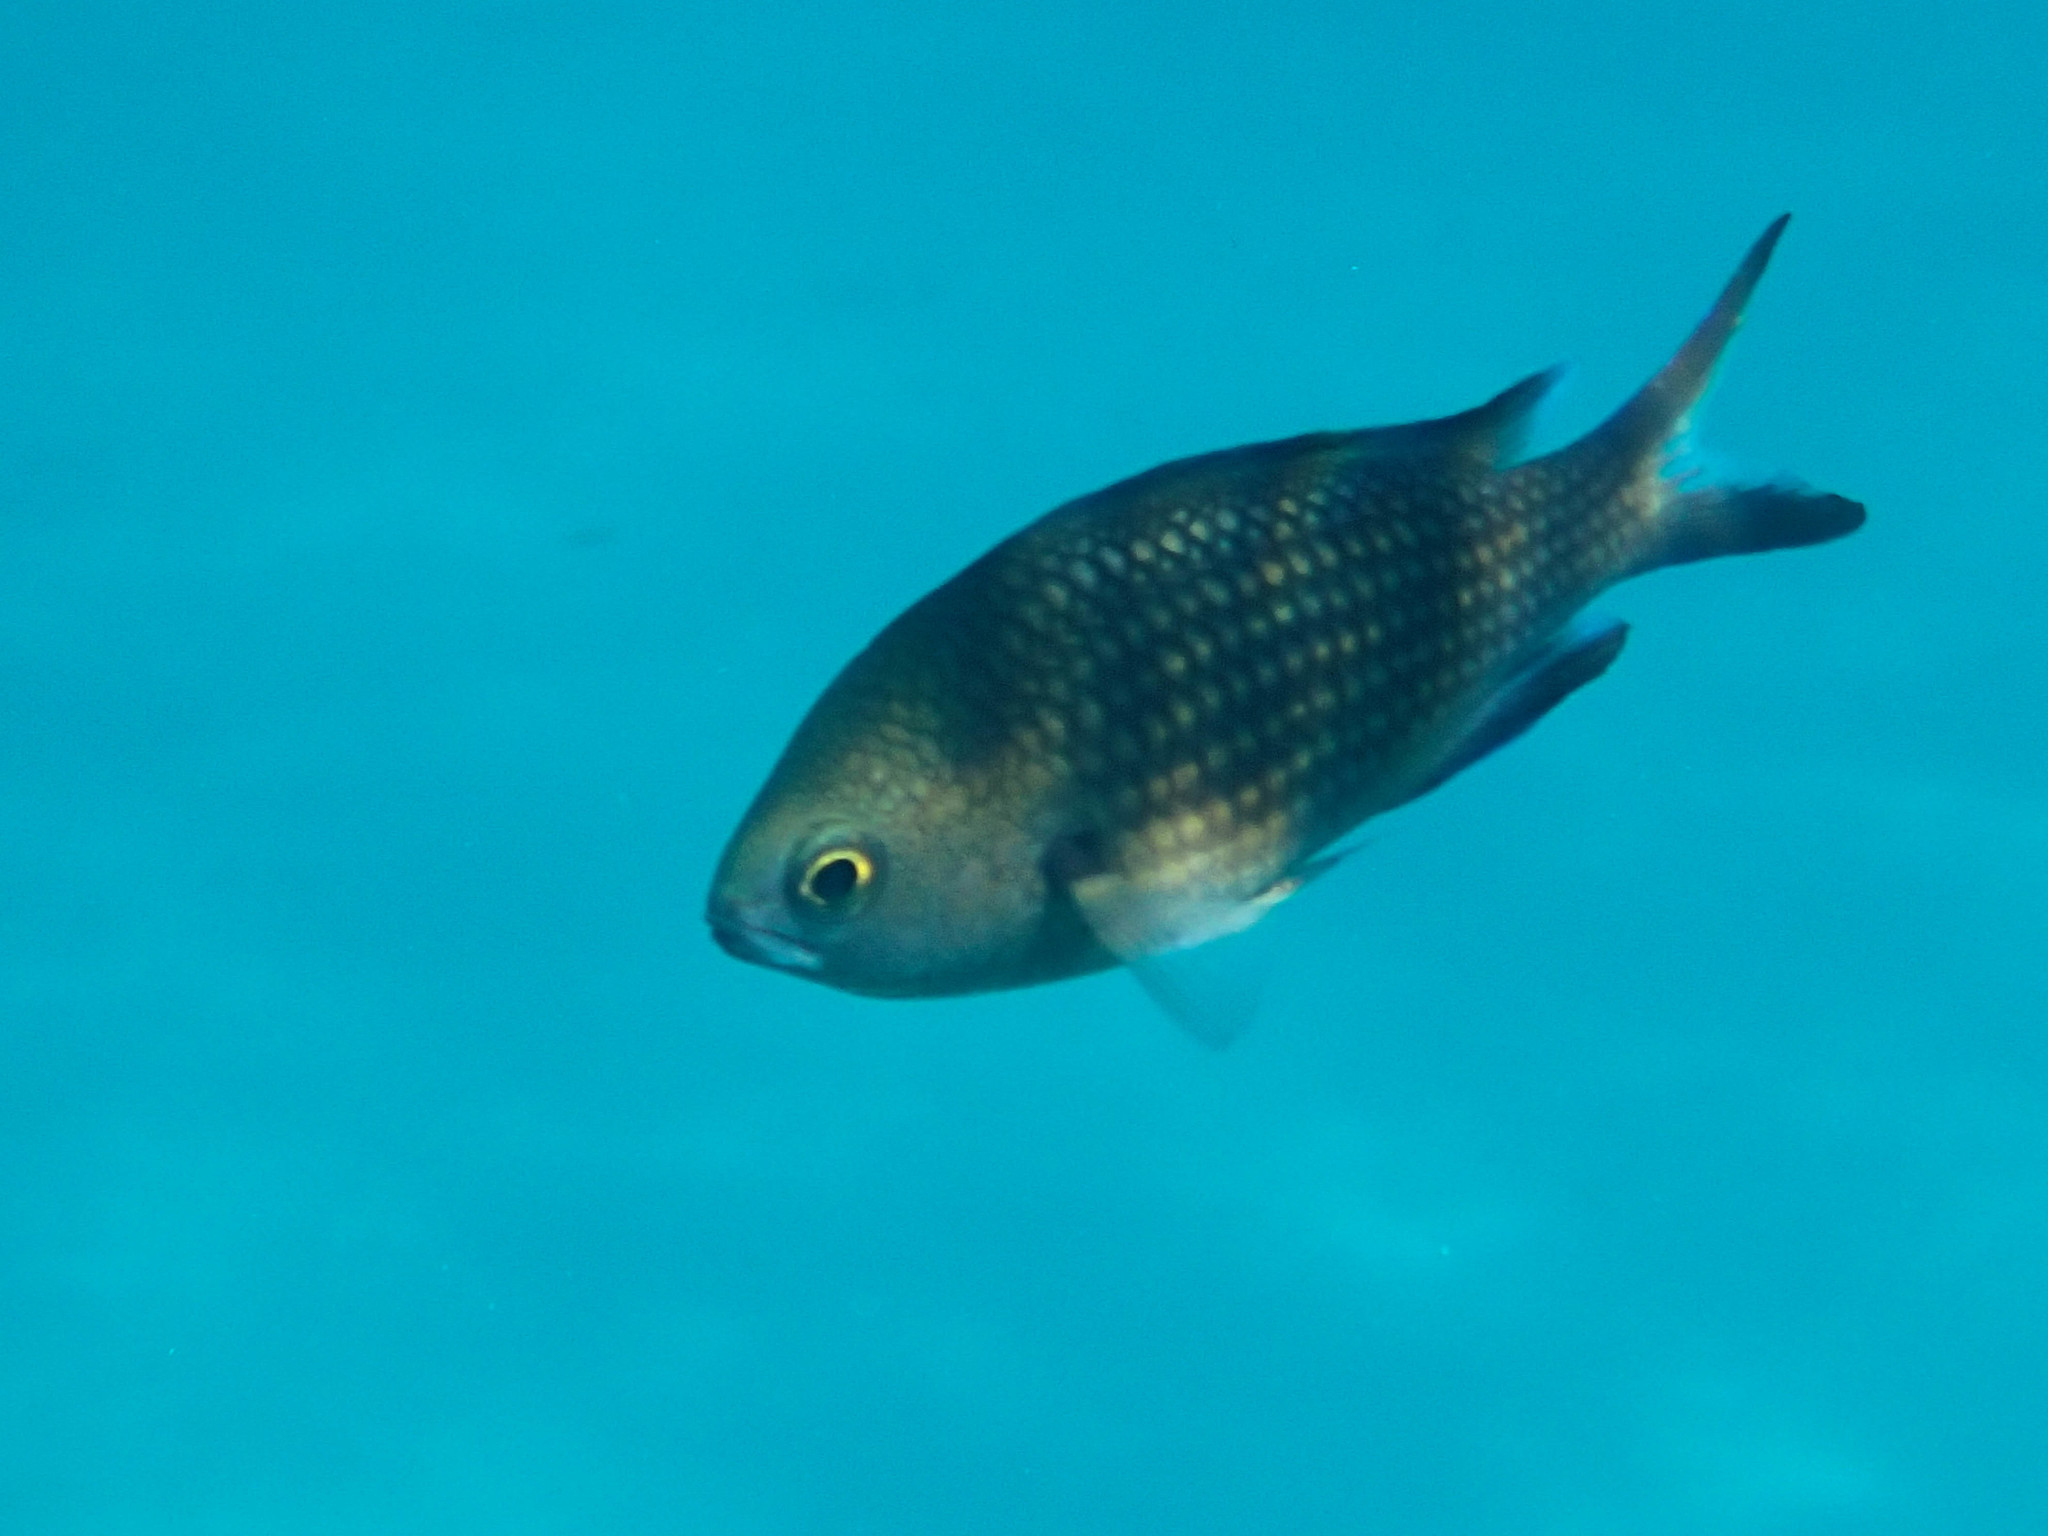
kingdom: Animalia
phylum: Chordata
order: Perciformes
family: Pomacentridae
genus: Chromis
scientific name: Chromis chromis
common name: Damselfish
